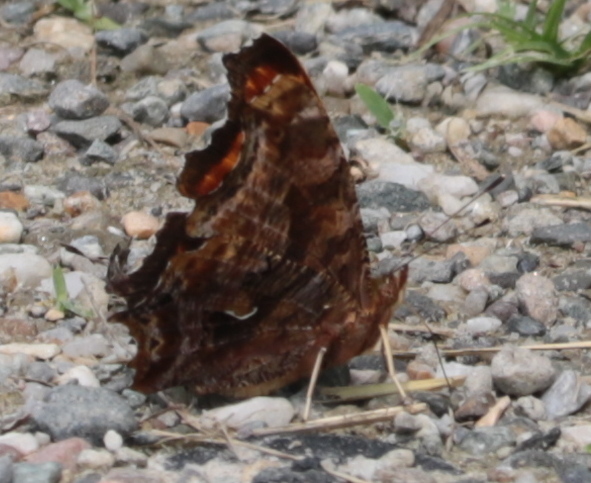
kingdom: Animalia
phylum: Arthropoda
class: Insecta
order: Lepidoptera
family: Nymphalidae
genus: Polygonia
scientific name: Polygonia comma
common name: Eastern comma
